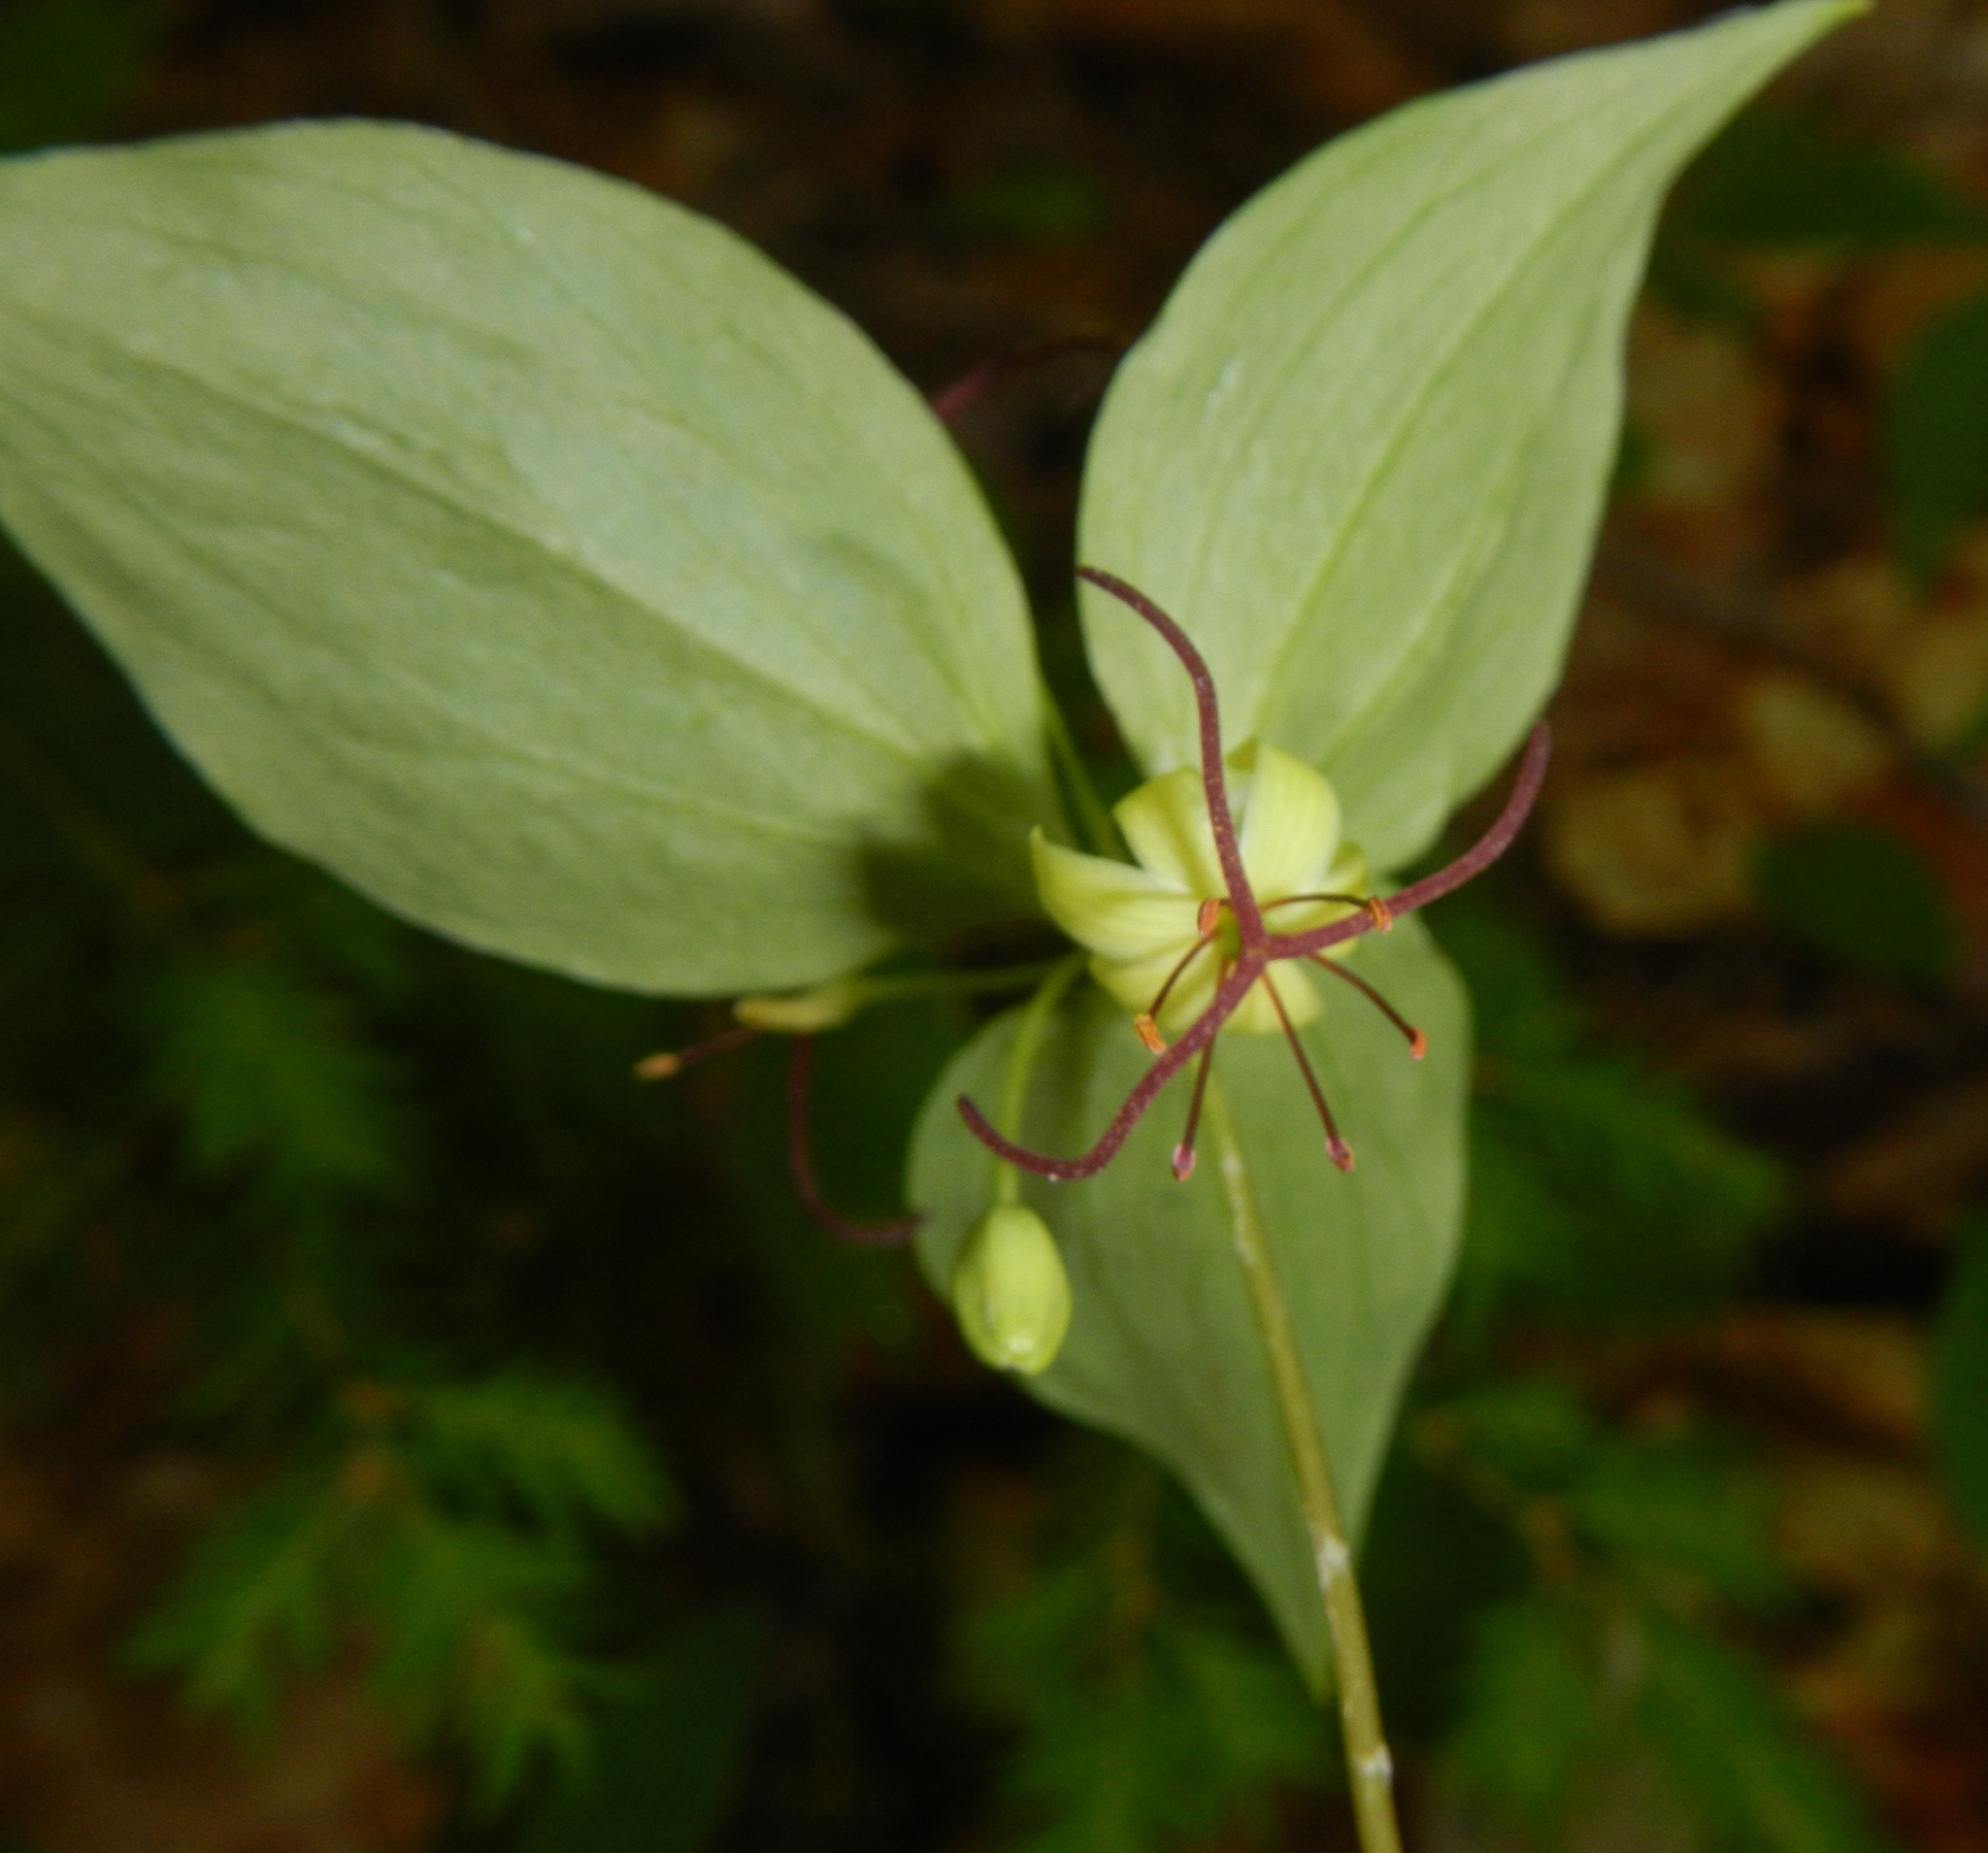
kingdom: Plantae
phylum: Tracheophyta
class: Liliopsida
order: Liliales
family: Liliaceae
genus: Medeola
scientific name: Medeola virginiana
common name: Indian cucumber-root
